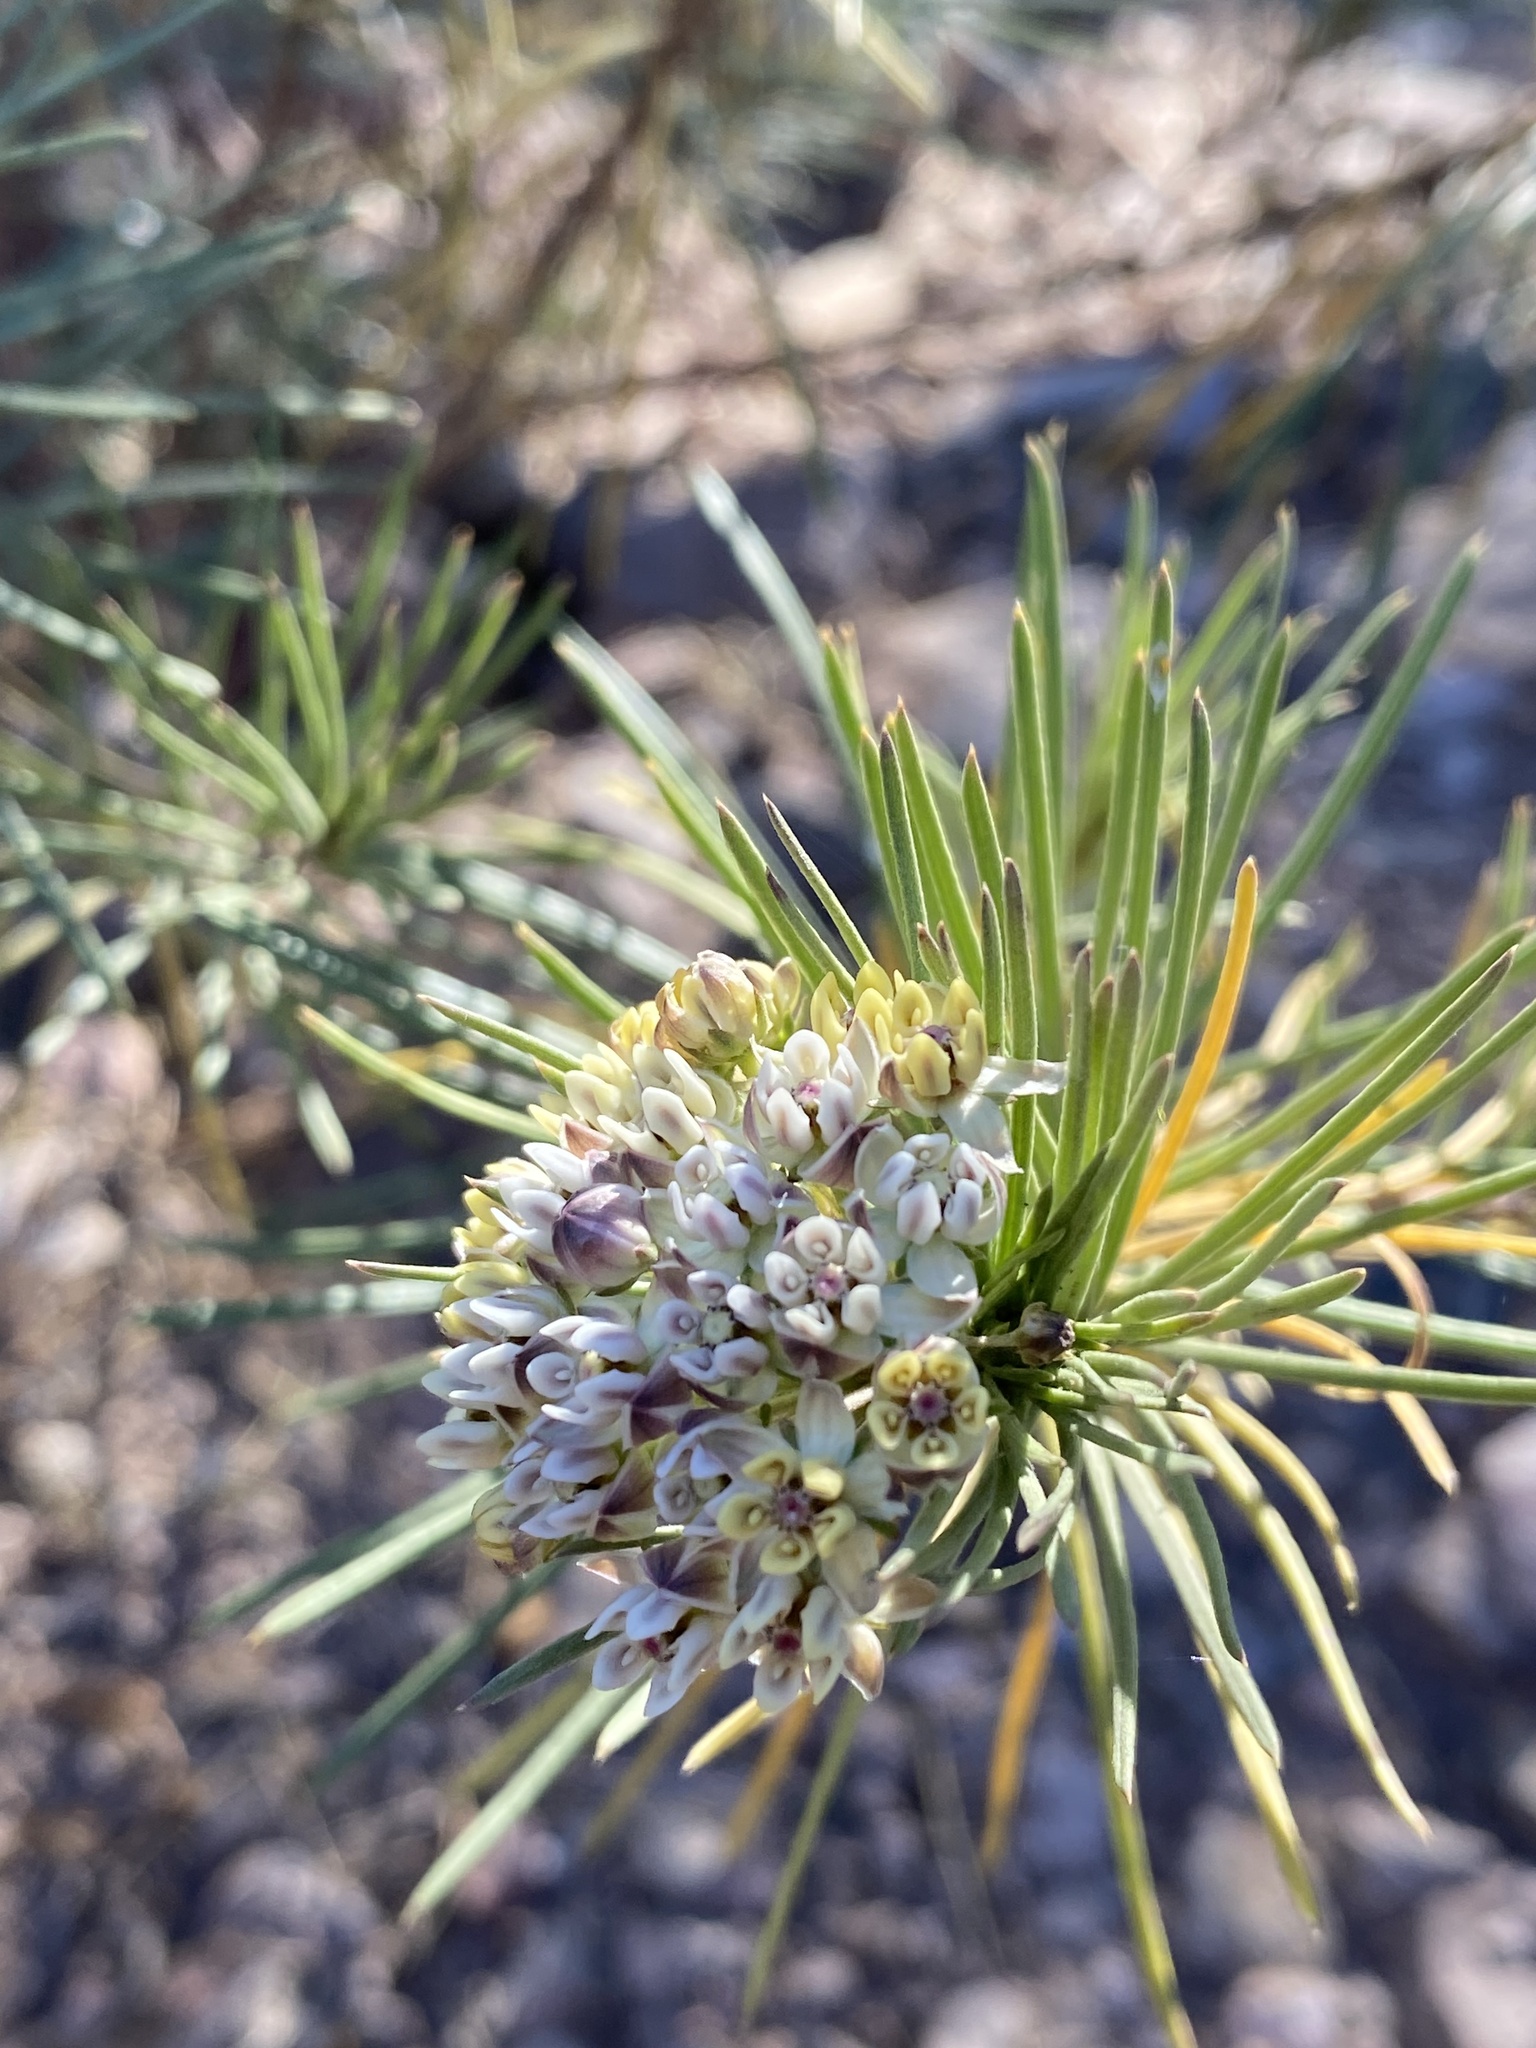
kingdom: Plantae
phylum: Tracheophyta
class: Magnoliopsida
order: Gentianales
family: Apocynaceae
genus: Asclepias
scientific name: Asclepias linaria
